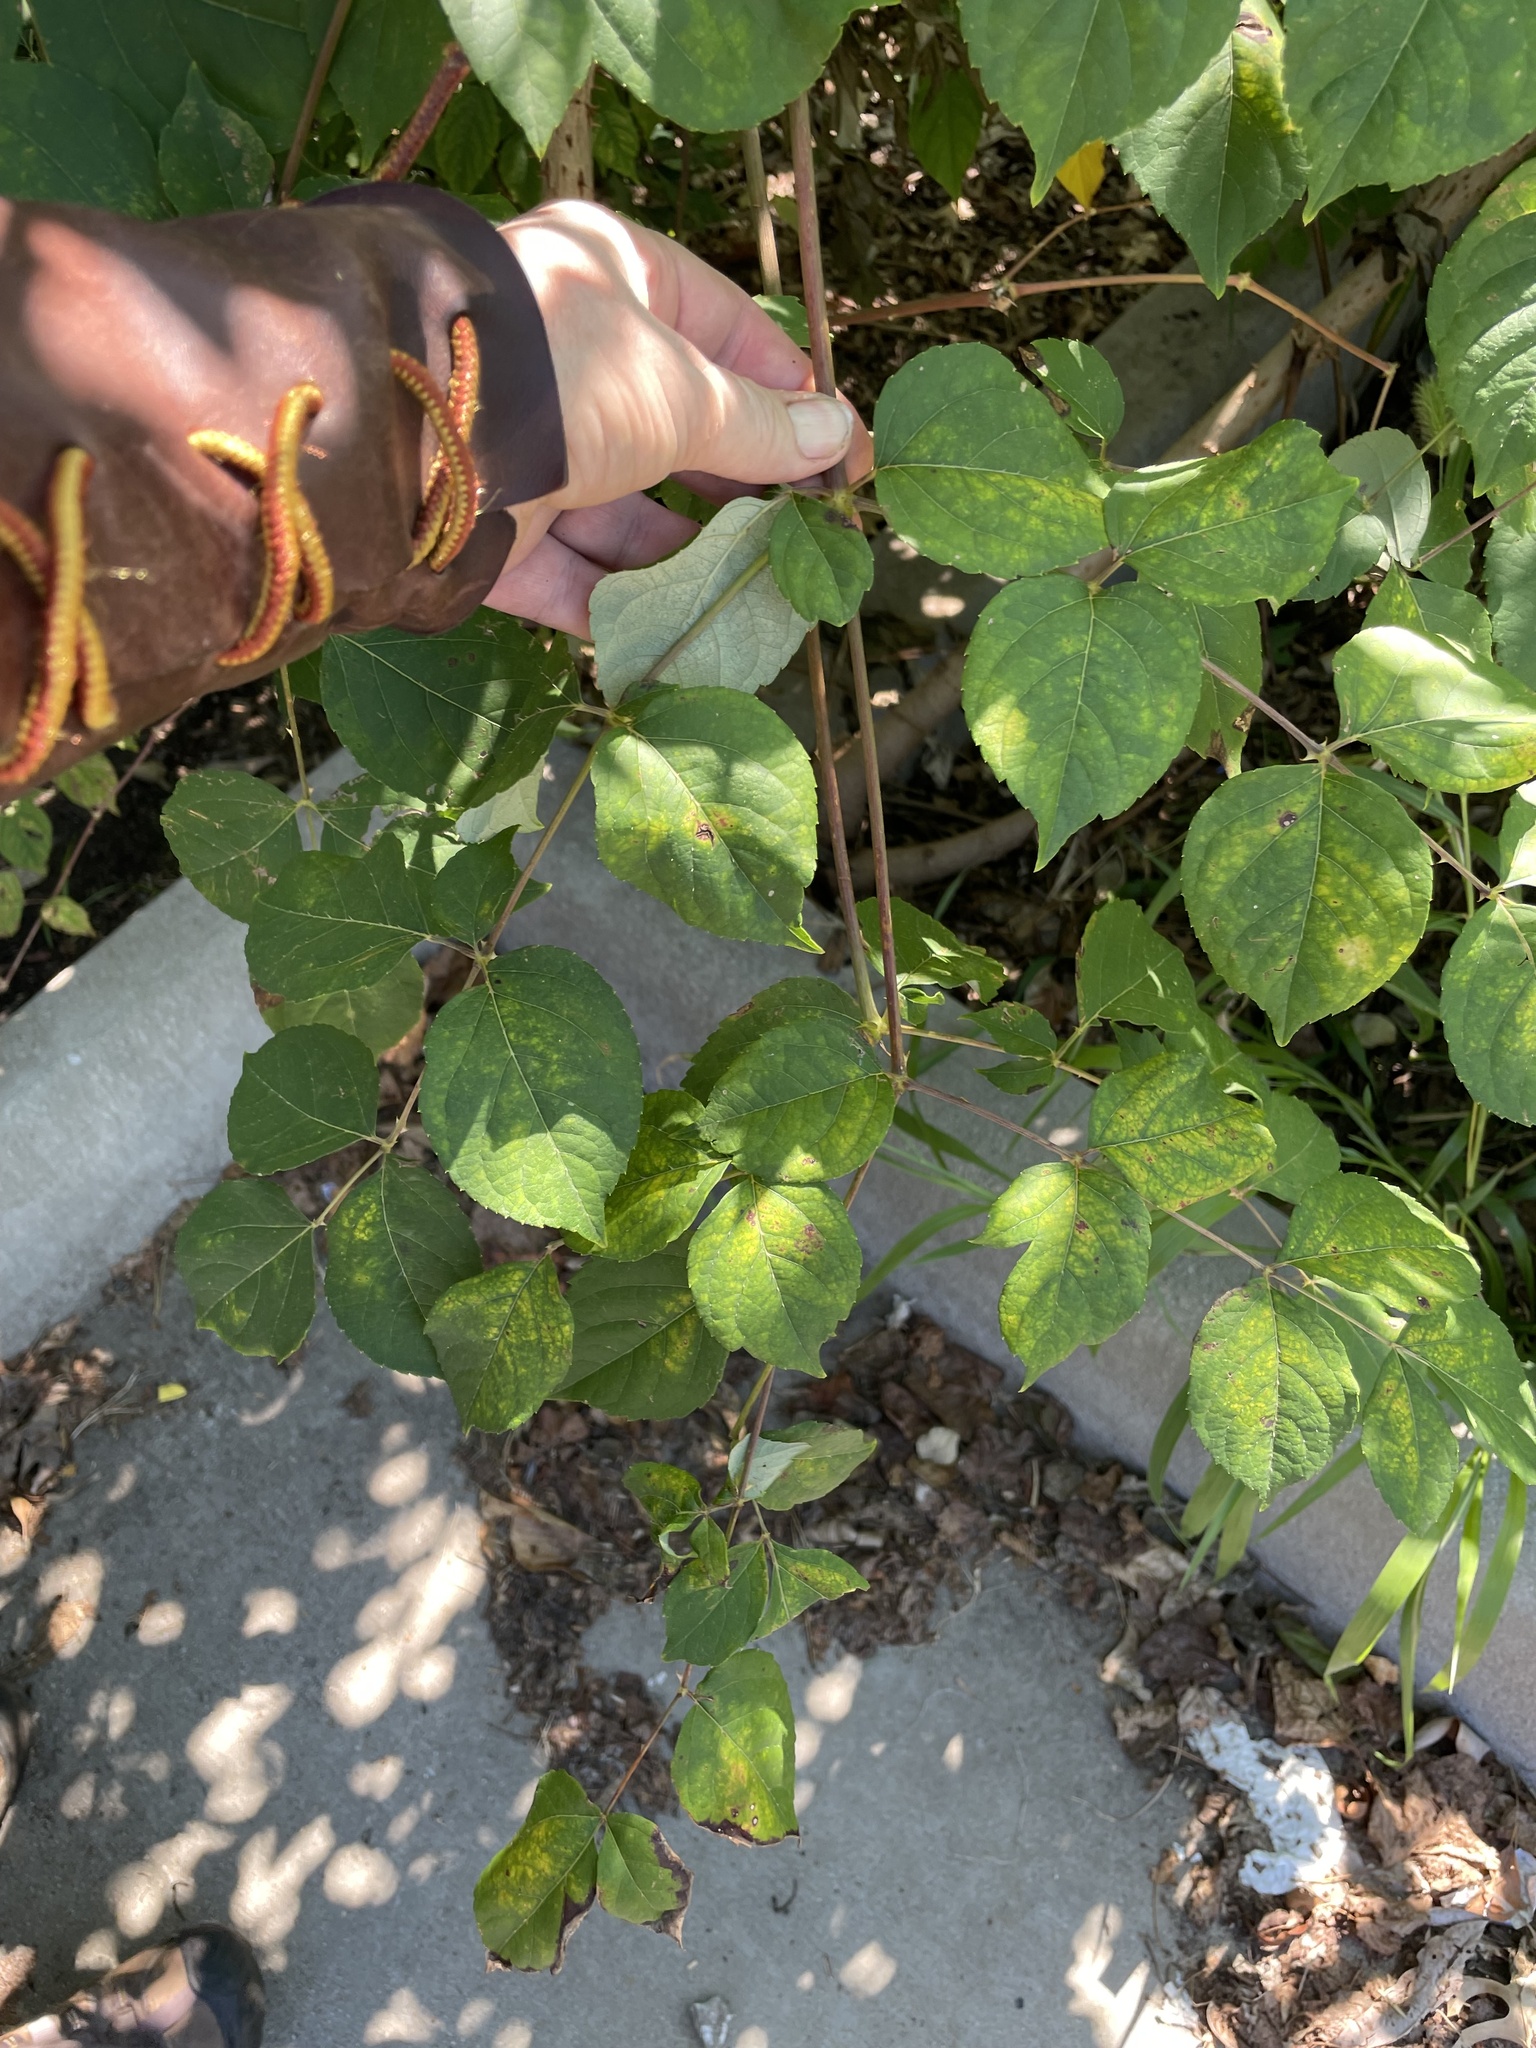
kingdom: Plantae
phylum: Tracheophyta
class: Magnoliopsida
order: Apiales
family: Araliaceae
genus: Aralia
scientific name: Aralia elata
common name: Japanese angelica-tree
